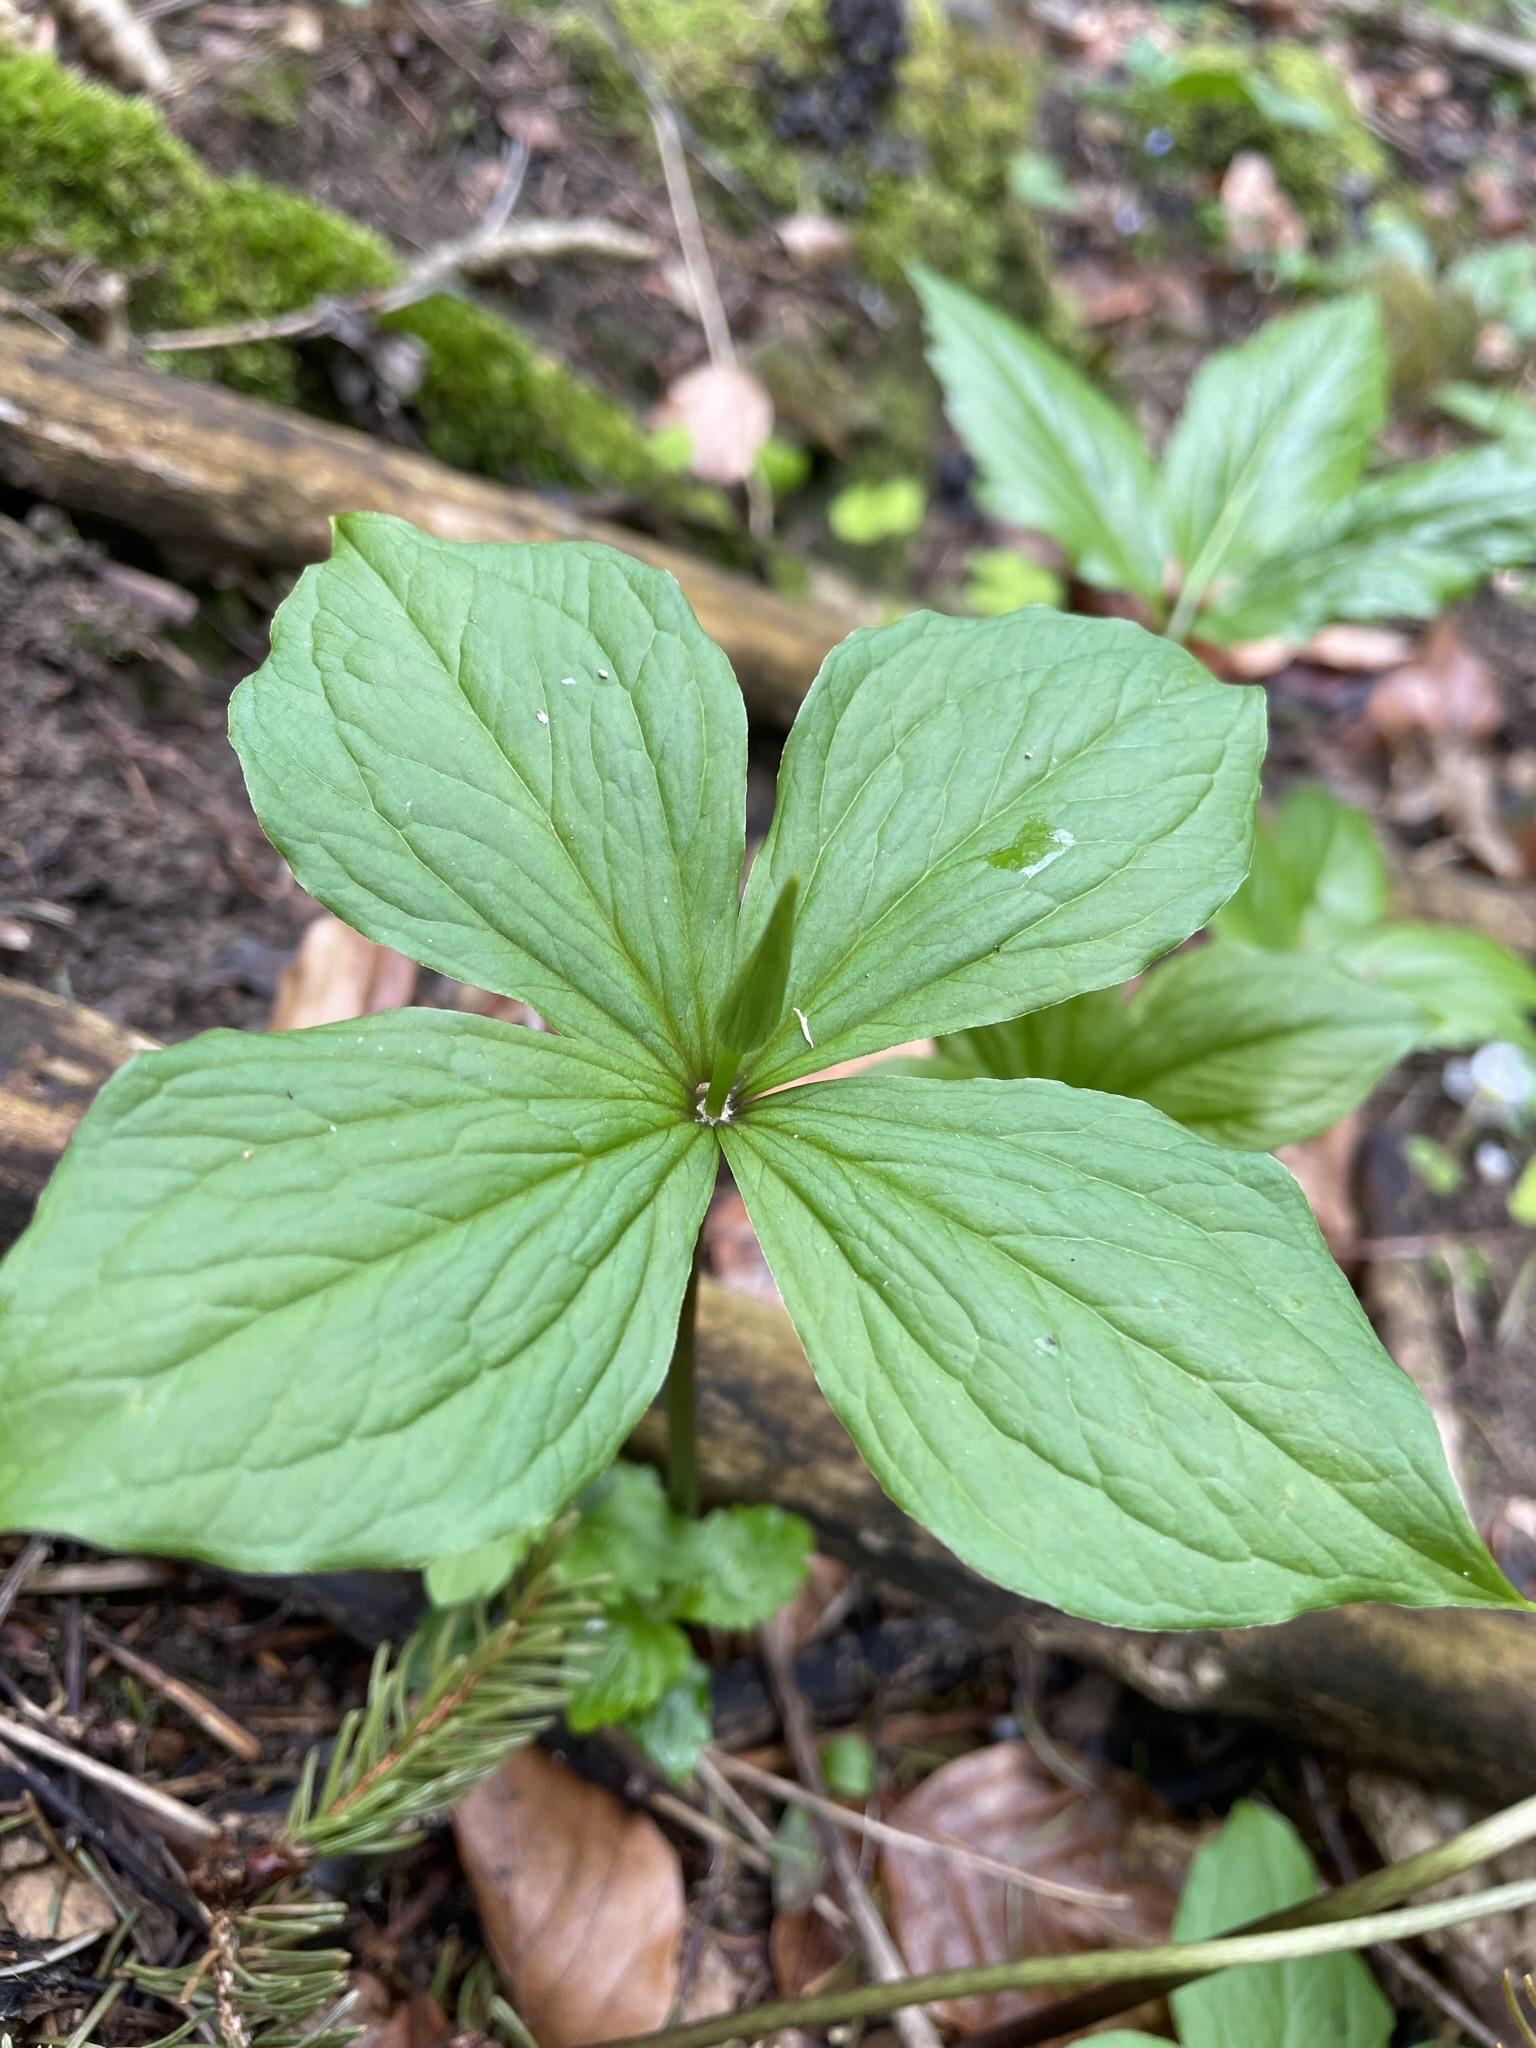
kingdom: Plantae
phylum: Tracheophyta
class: Liliopsida
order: Liliales
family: Melanthiaceae
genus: Paris
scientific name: Paris quadrifolia
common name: Herb-paris
